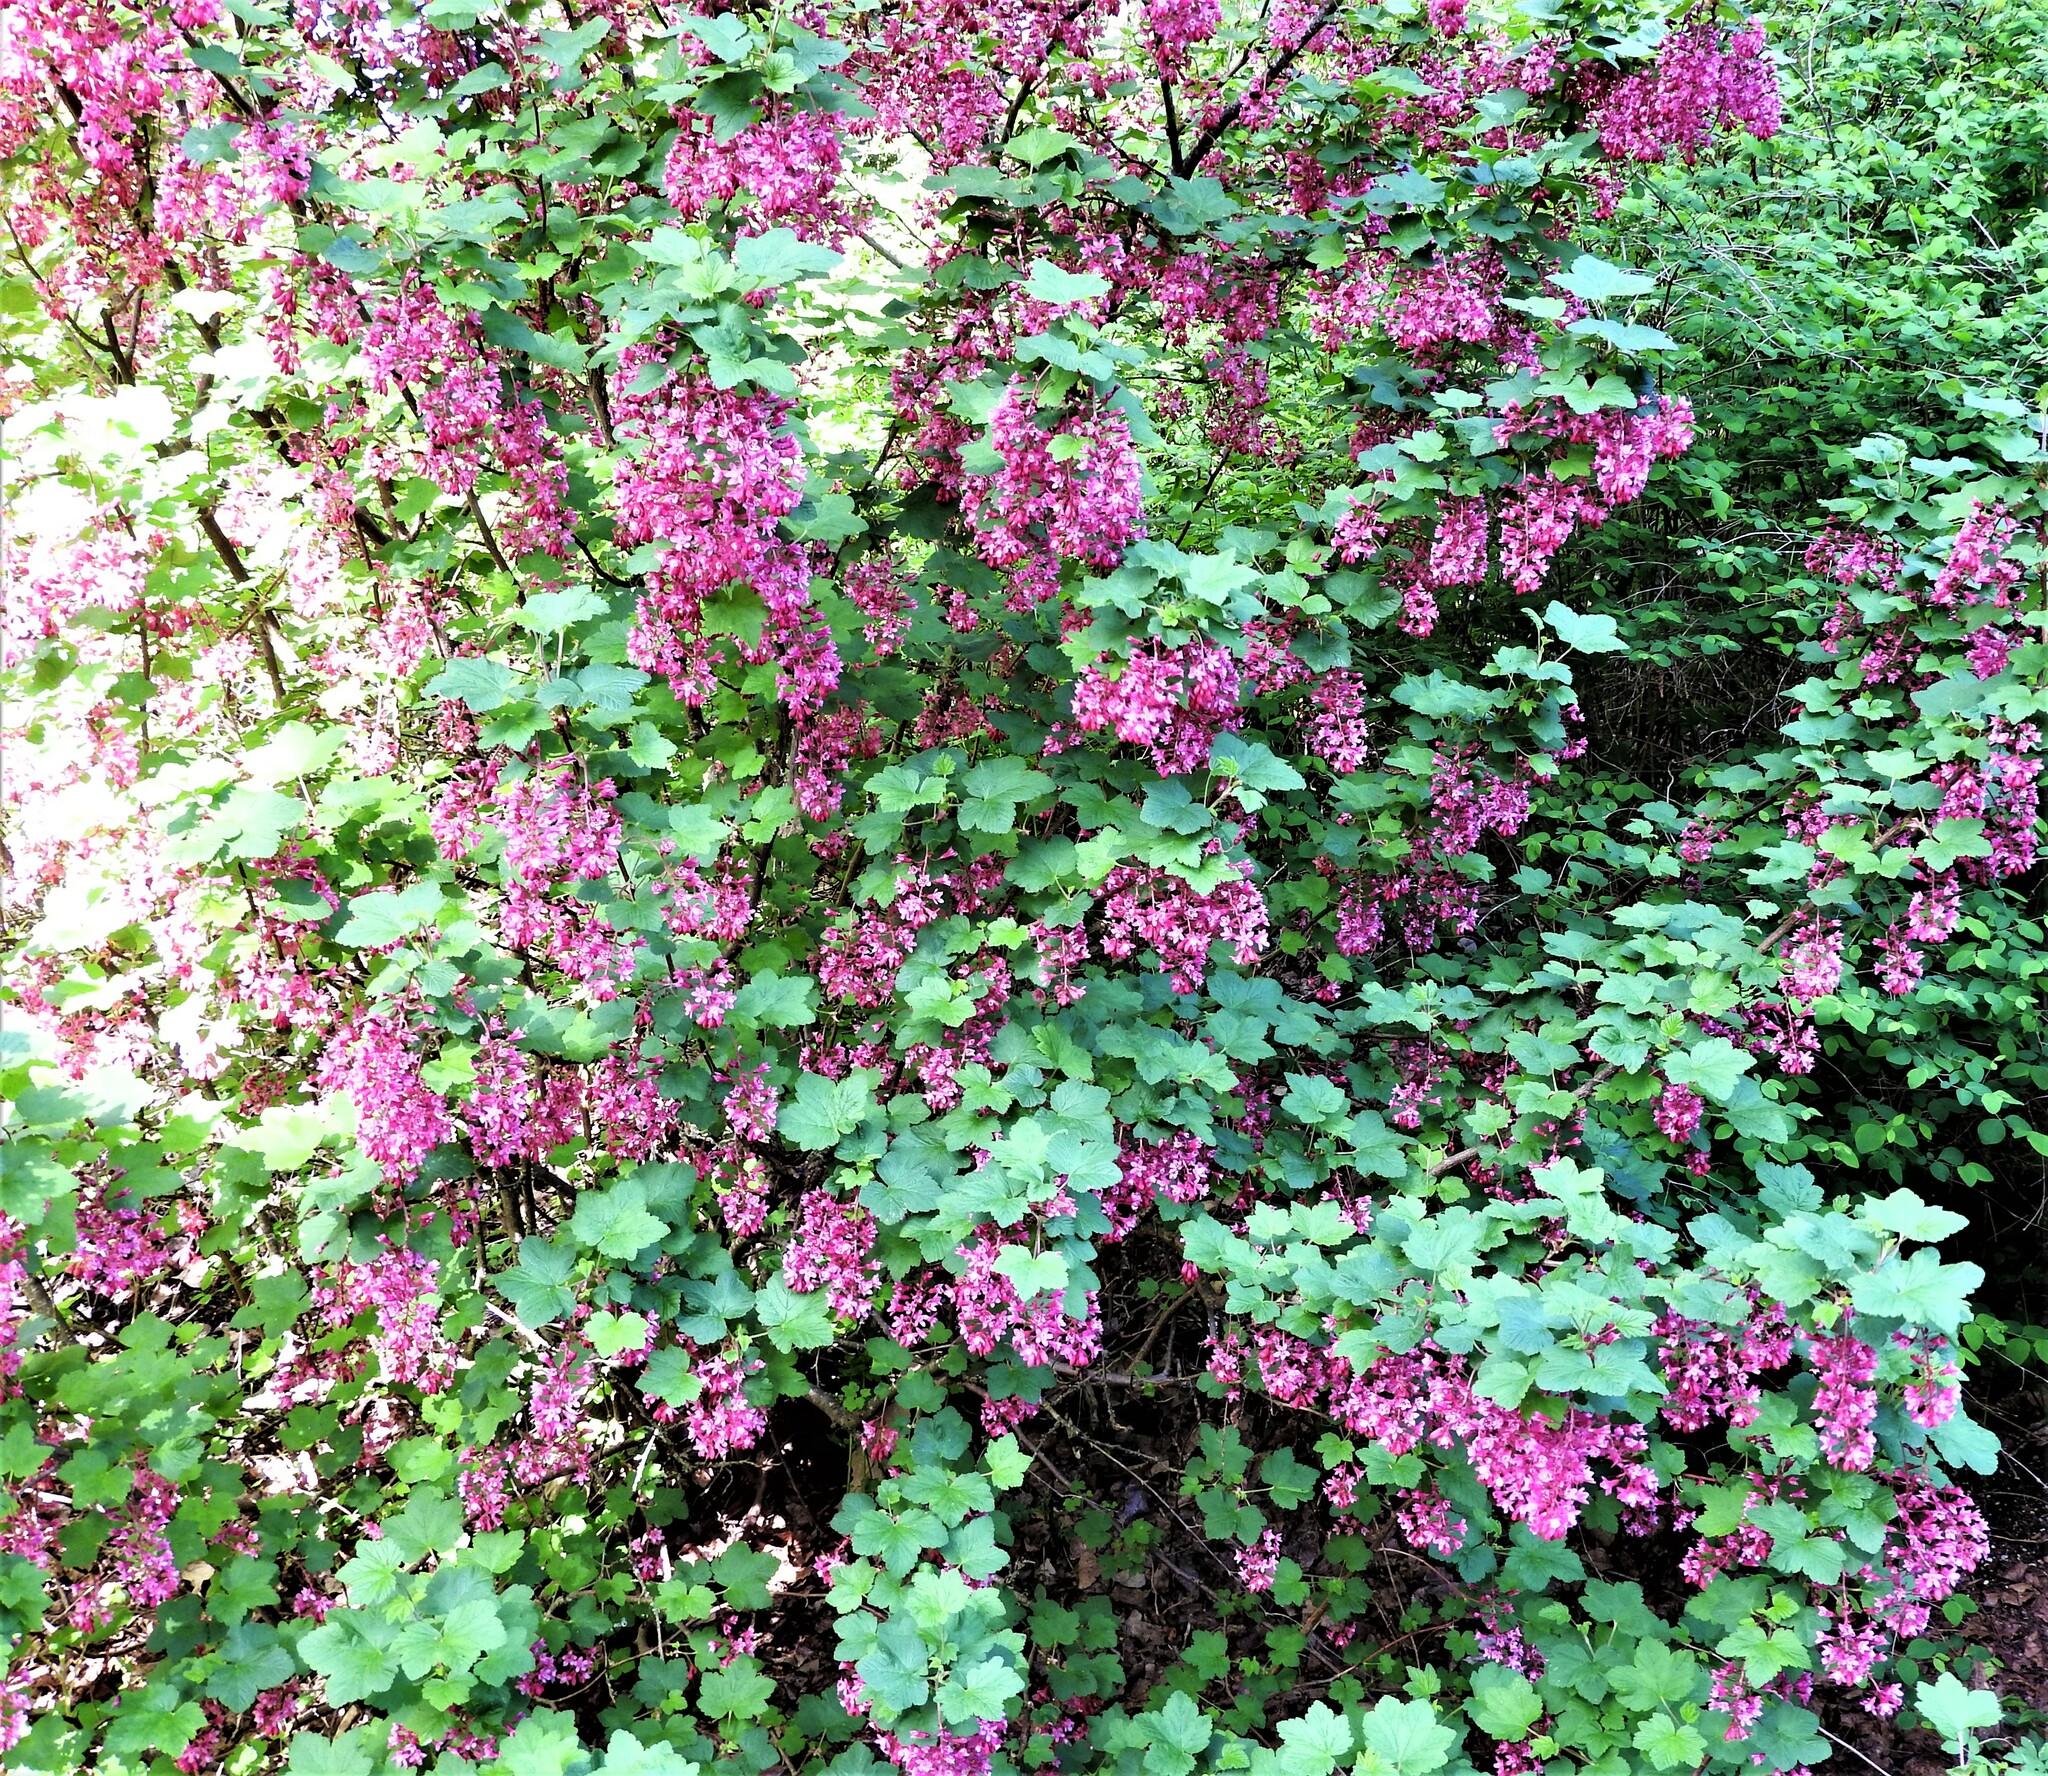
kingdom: Plantae
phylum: Tracheophyta
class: Magnoliopsida
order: Saxifragales
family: Grossulariaceae
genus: Ribes
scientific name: Ribes sanguineum
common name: Flowering currant
